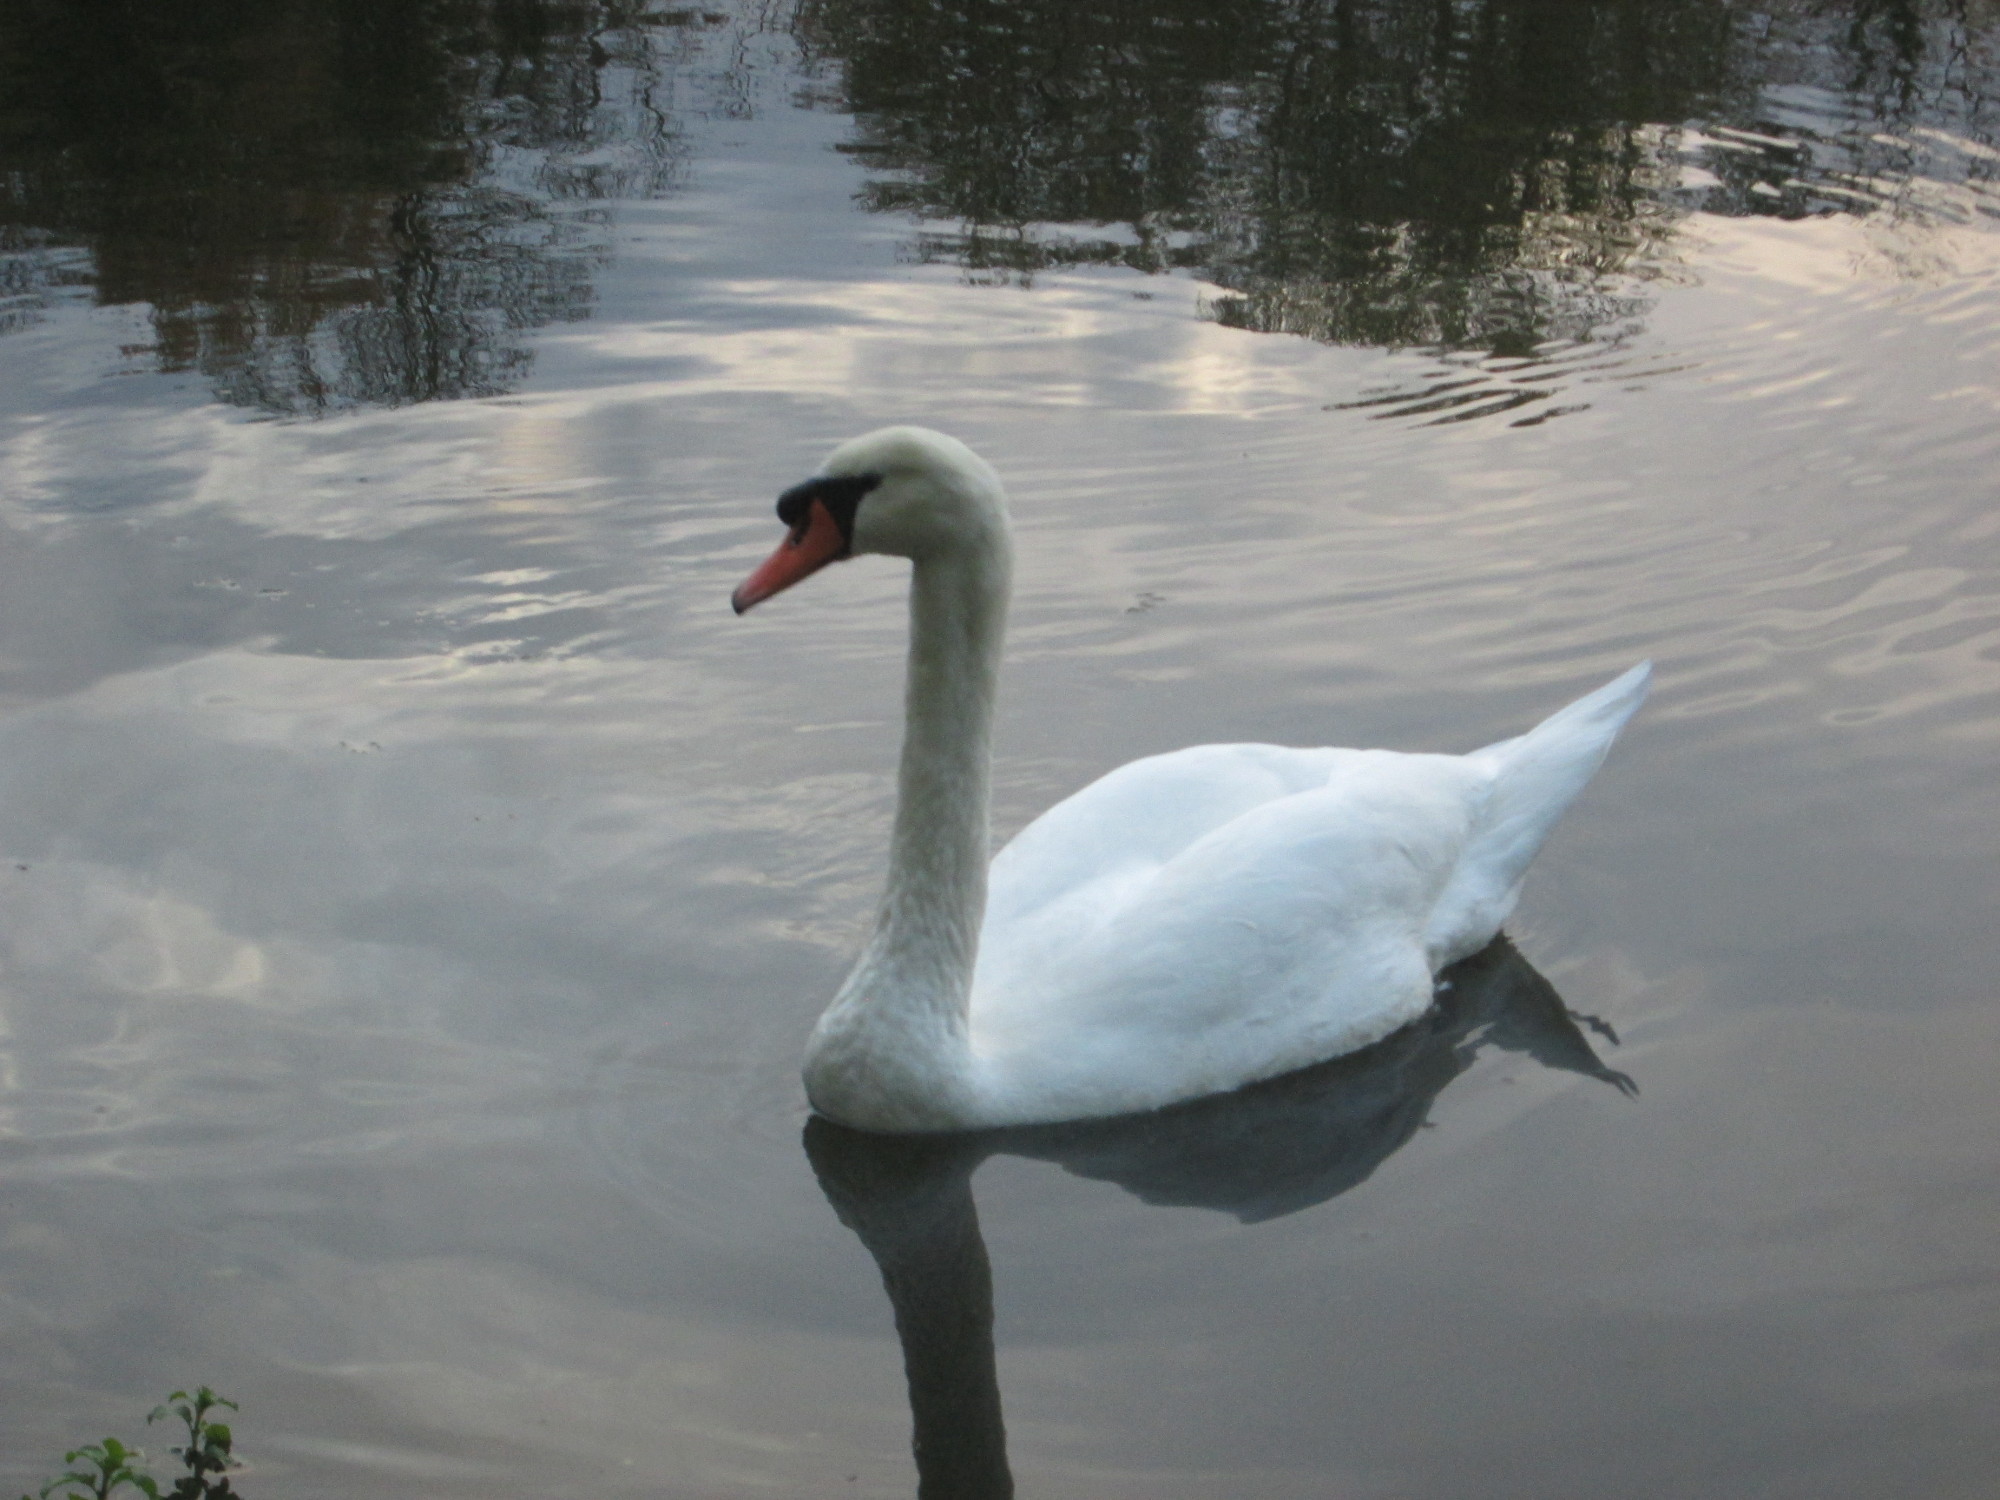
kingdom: Animalia
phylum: Chordata
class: Aves
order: Anseriformes
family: Anatidae
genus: Cygnus
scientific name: Cygnus olor
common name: Mute swan
